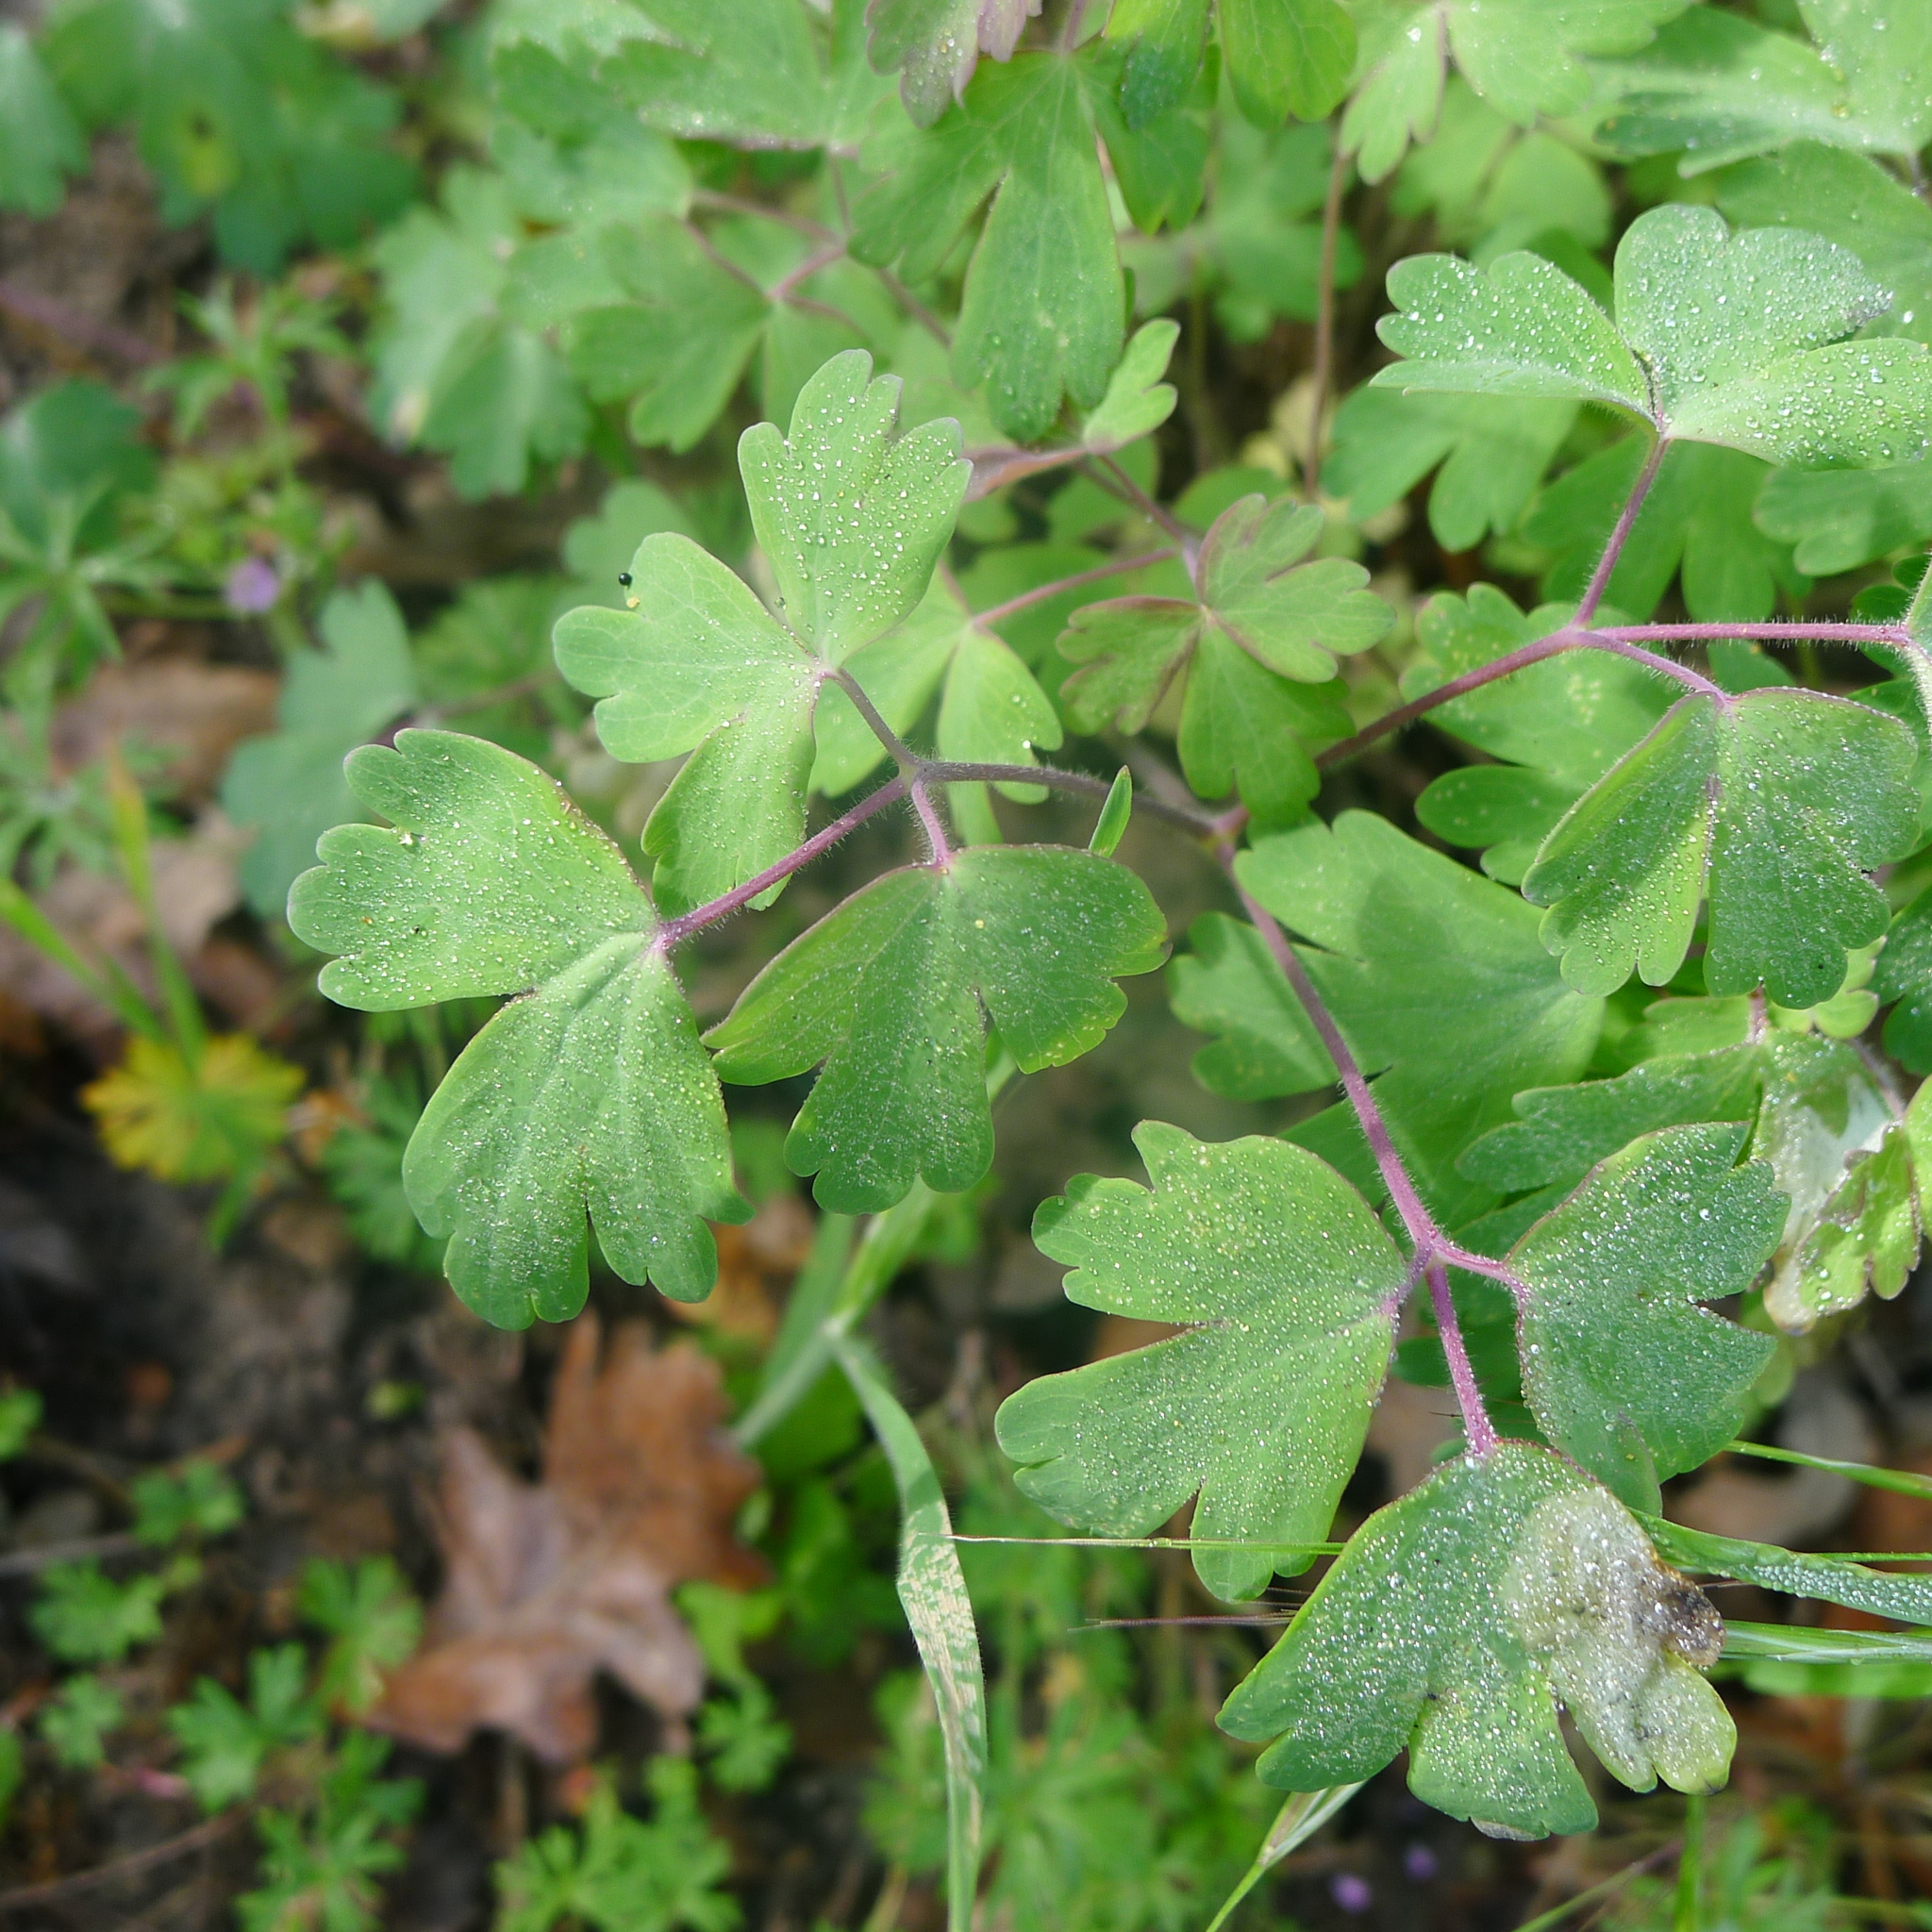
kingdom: Plantae
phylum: Tracheophyta
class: Magnoliopsida
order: Ranunculales
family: Ranunculaceae
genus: Aquilegia
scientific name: Aquilegia formosa
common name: Sitka columbine
